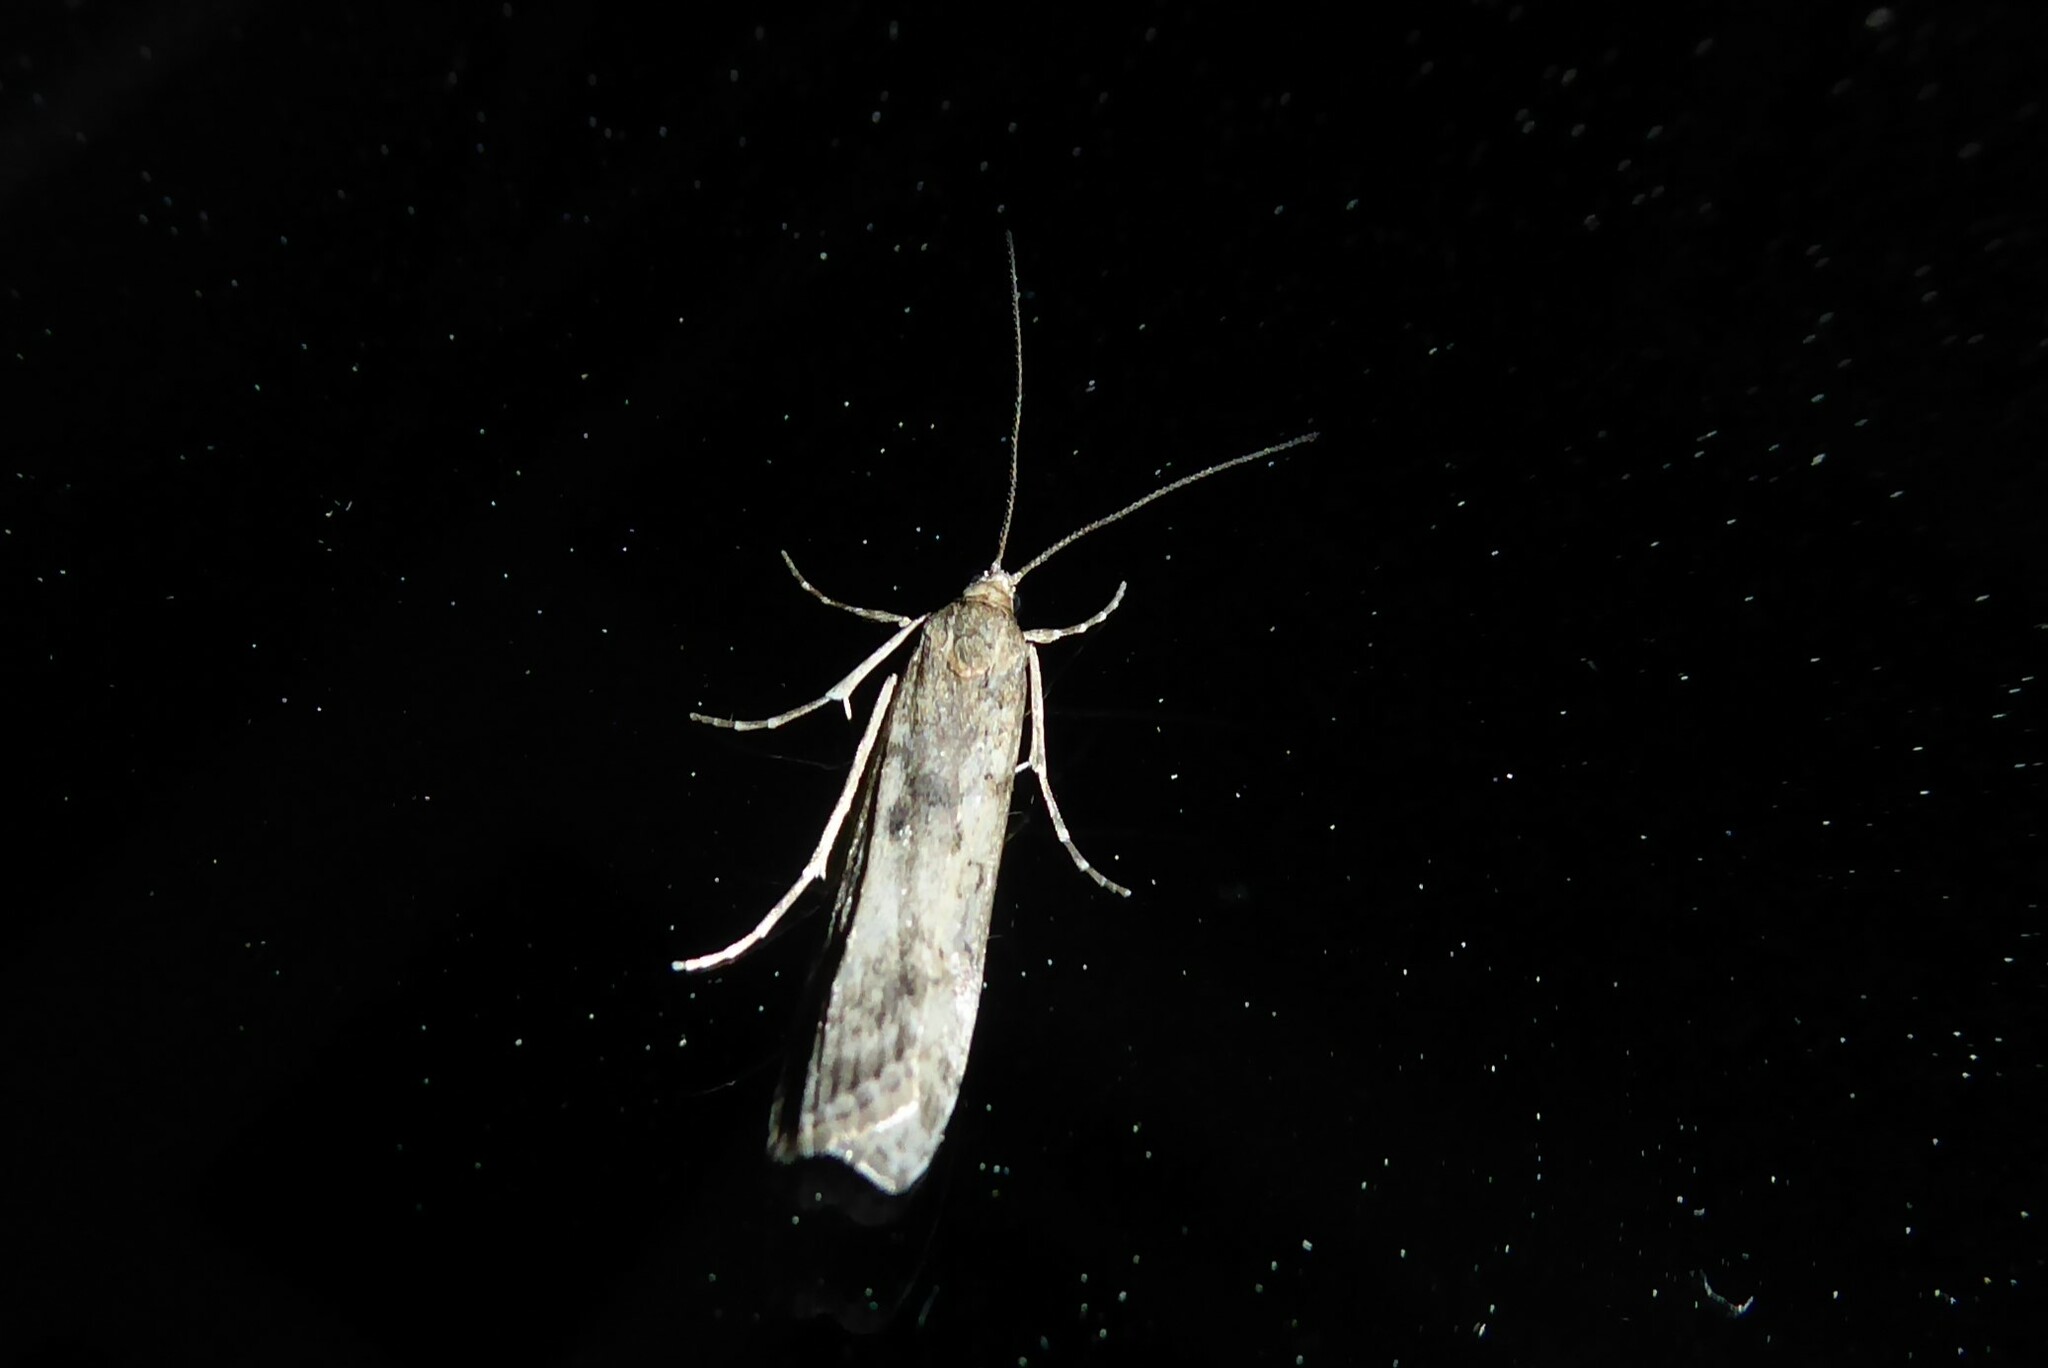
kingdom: Animalia
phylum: Arthropoda
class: Insecta
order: Lepidoptera
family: Crambidae
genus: Eudonia
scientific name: Eudonia leptalea
